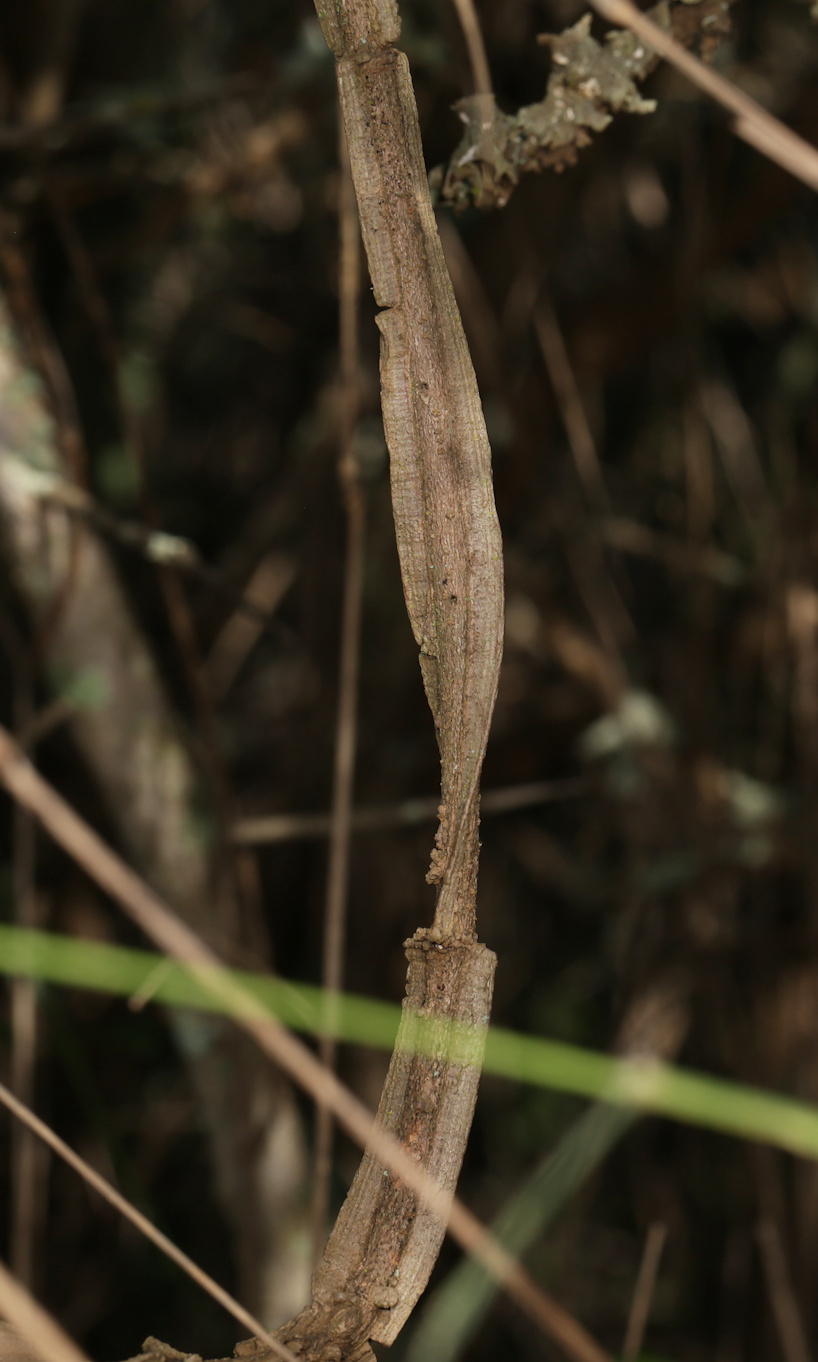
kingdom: Plantae
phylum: Tracheophyta
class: Magnoliopsida
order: Gentianales
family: Apocynaceae
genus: Secamone
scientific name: Secamone schweinfurthii
